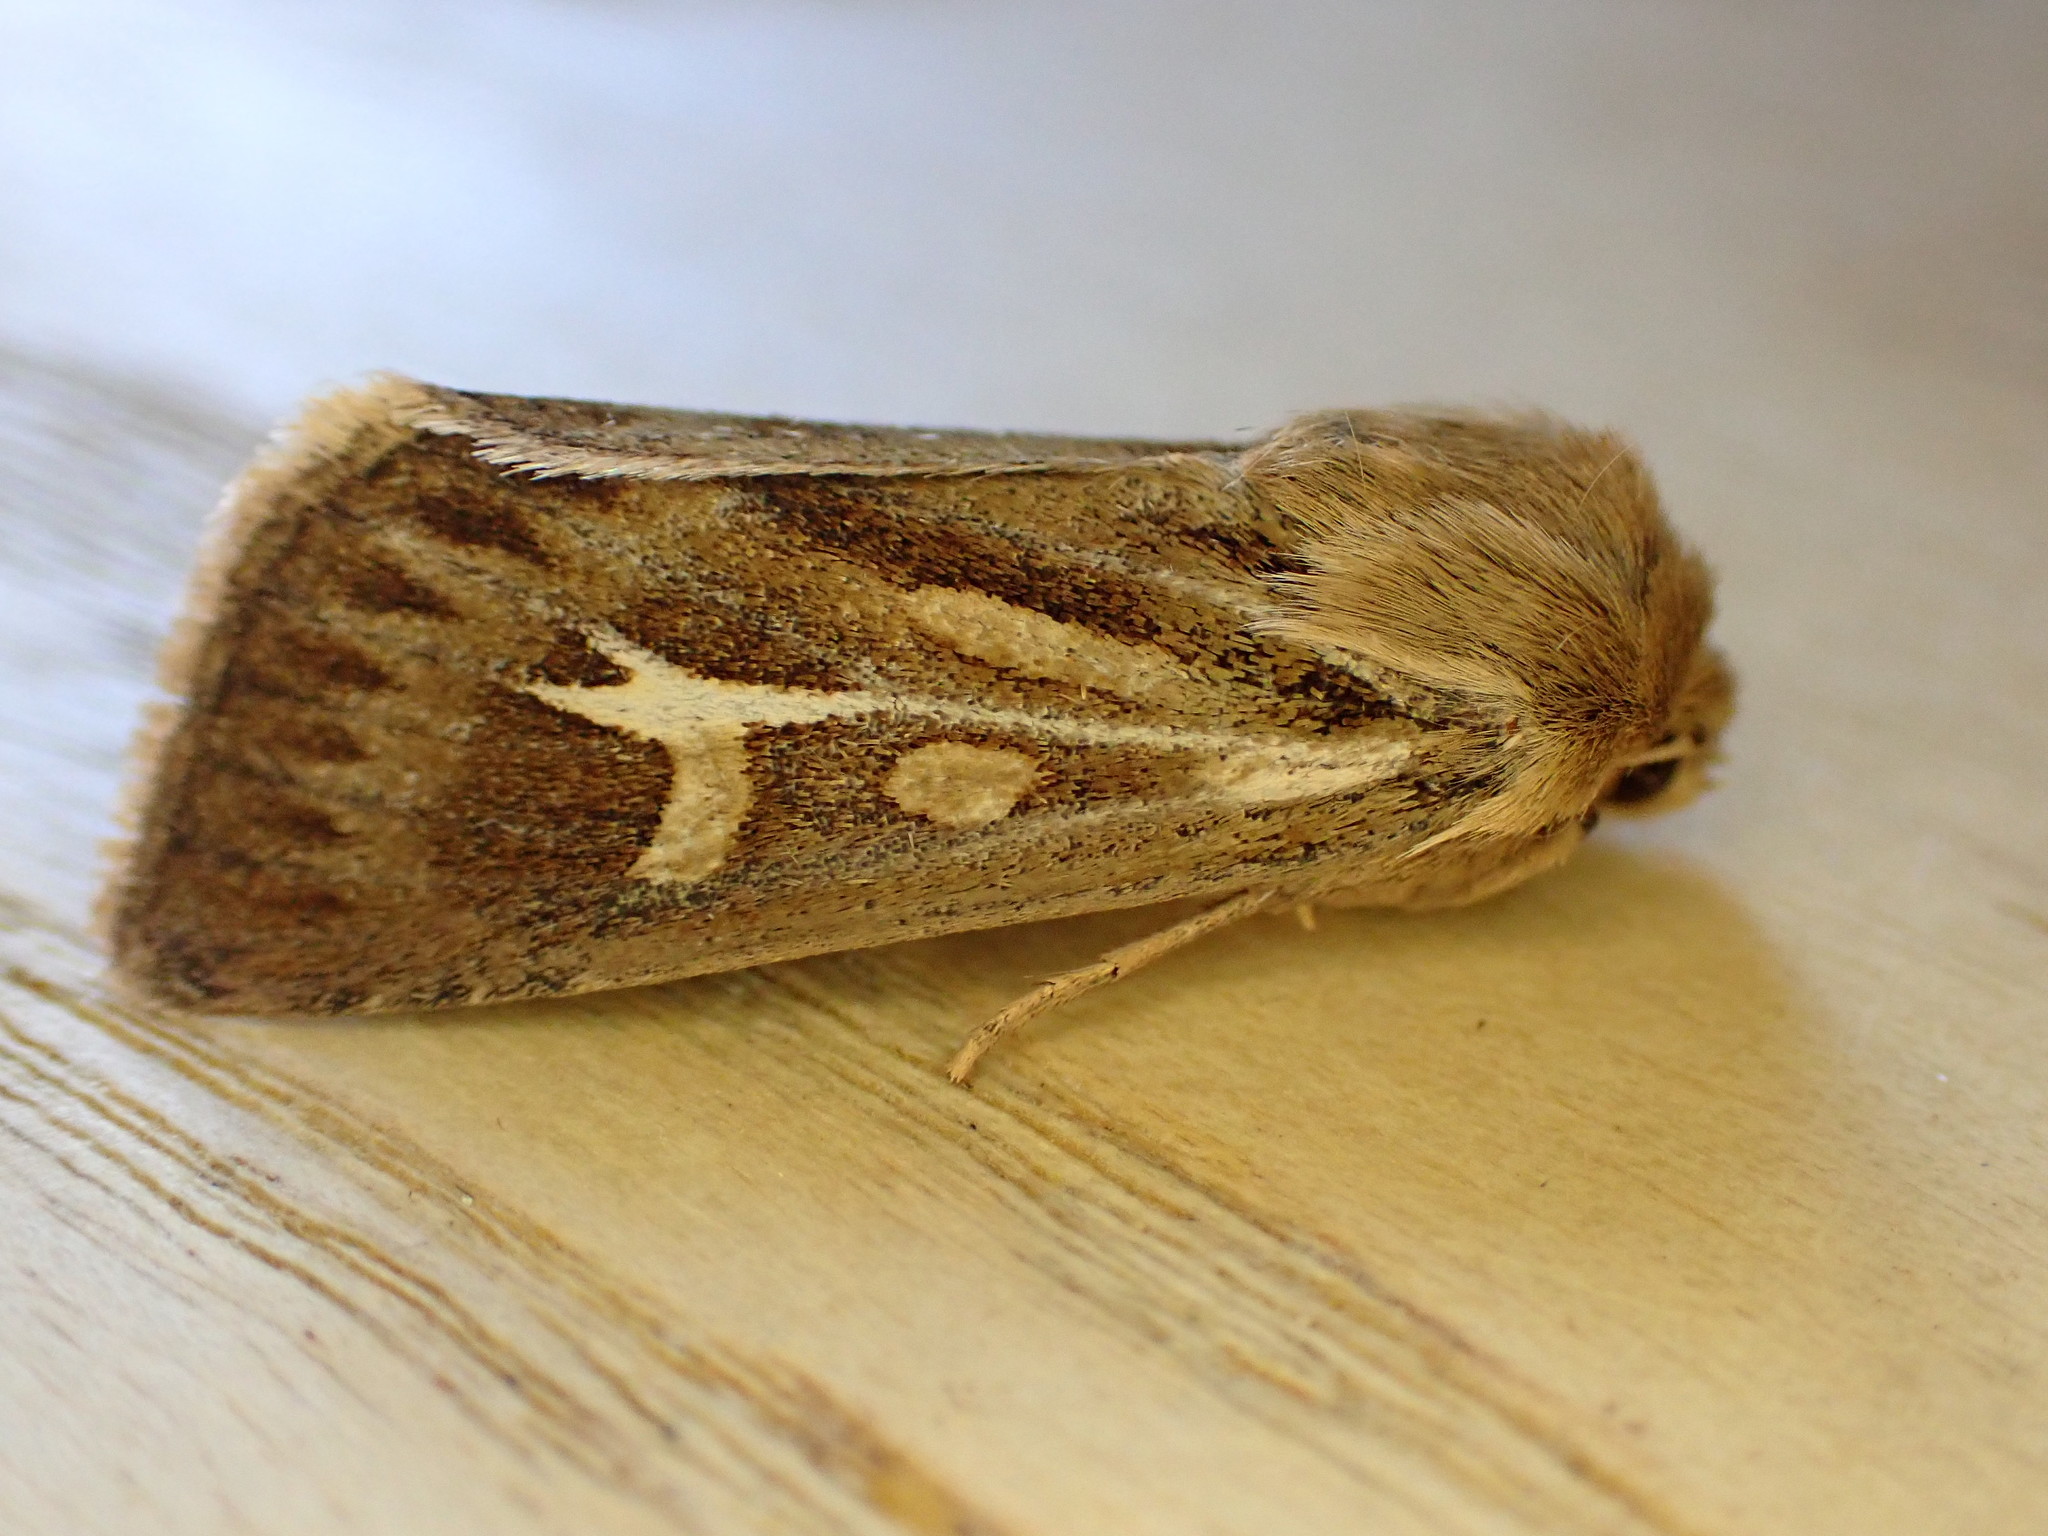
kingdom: Animalia
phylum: Arthropoda
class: Insecta
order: Lepidoptera
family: Noctuidae
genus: Cerapteryx
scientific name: Cerapteryx graminis
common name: Antler moth
